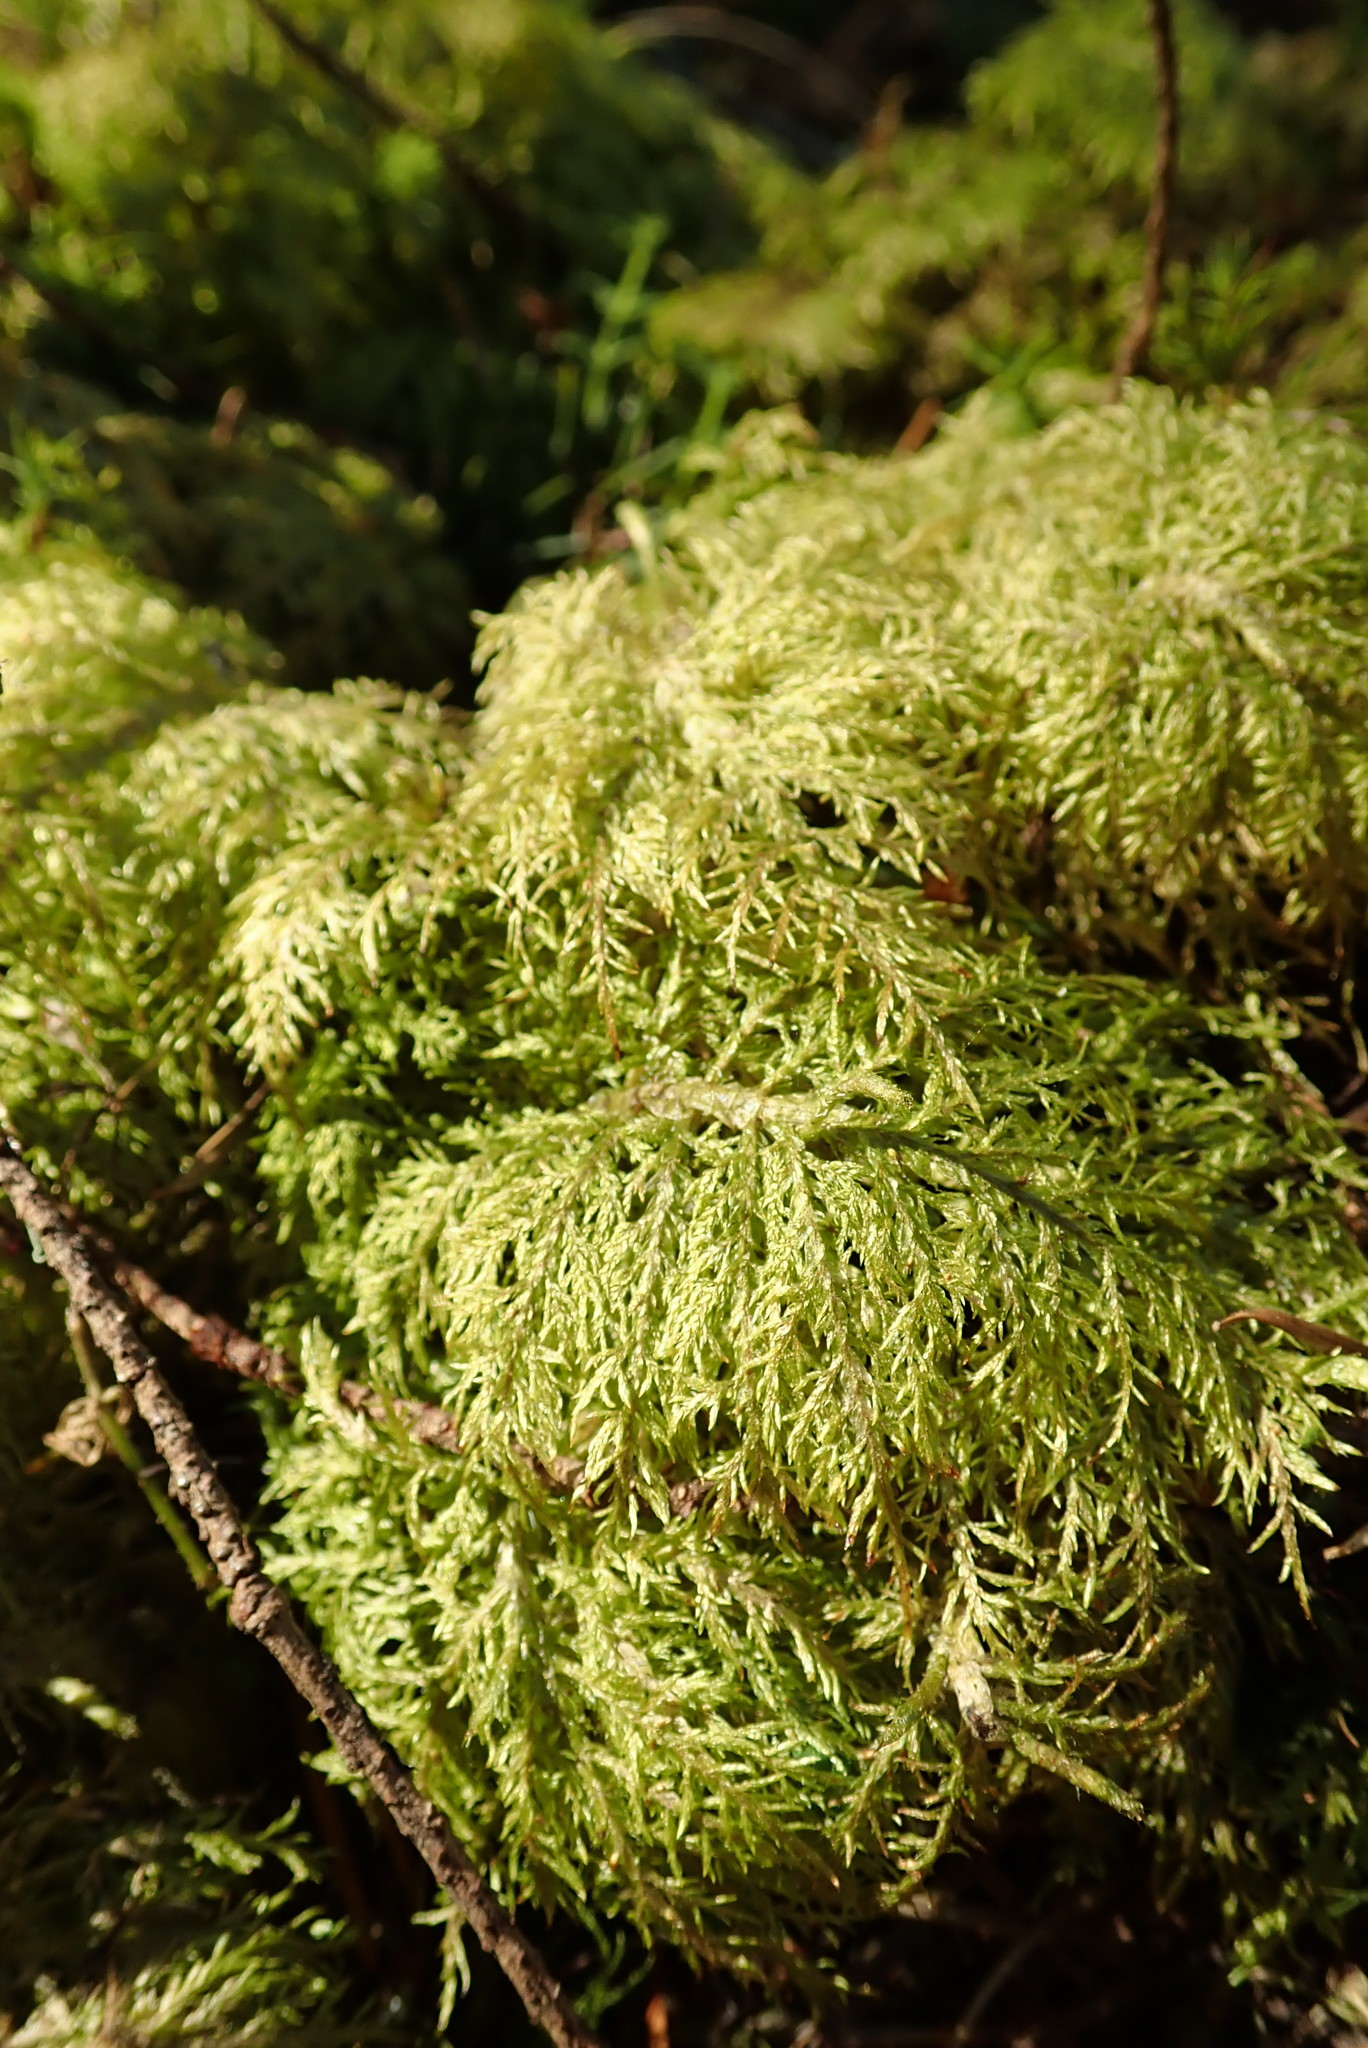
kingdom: Plantae
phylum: Bryophyta
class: Bryopsida
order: Hypnales
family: Hylocomiaceae
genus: Hylocomium
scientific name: Hylocomium splendens
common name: Stairstep moss
